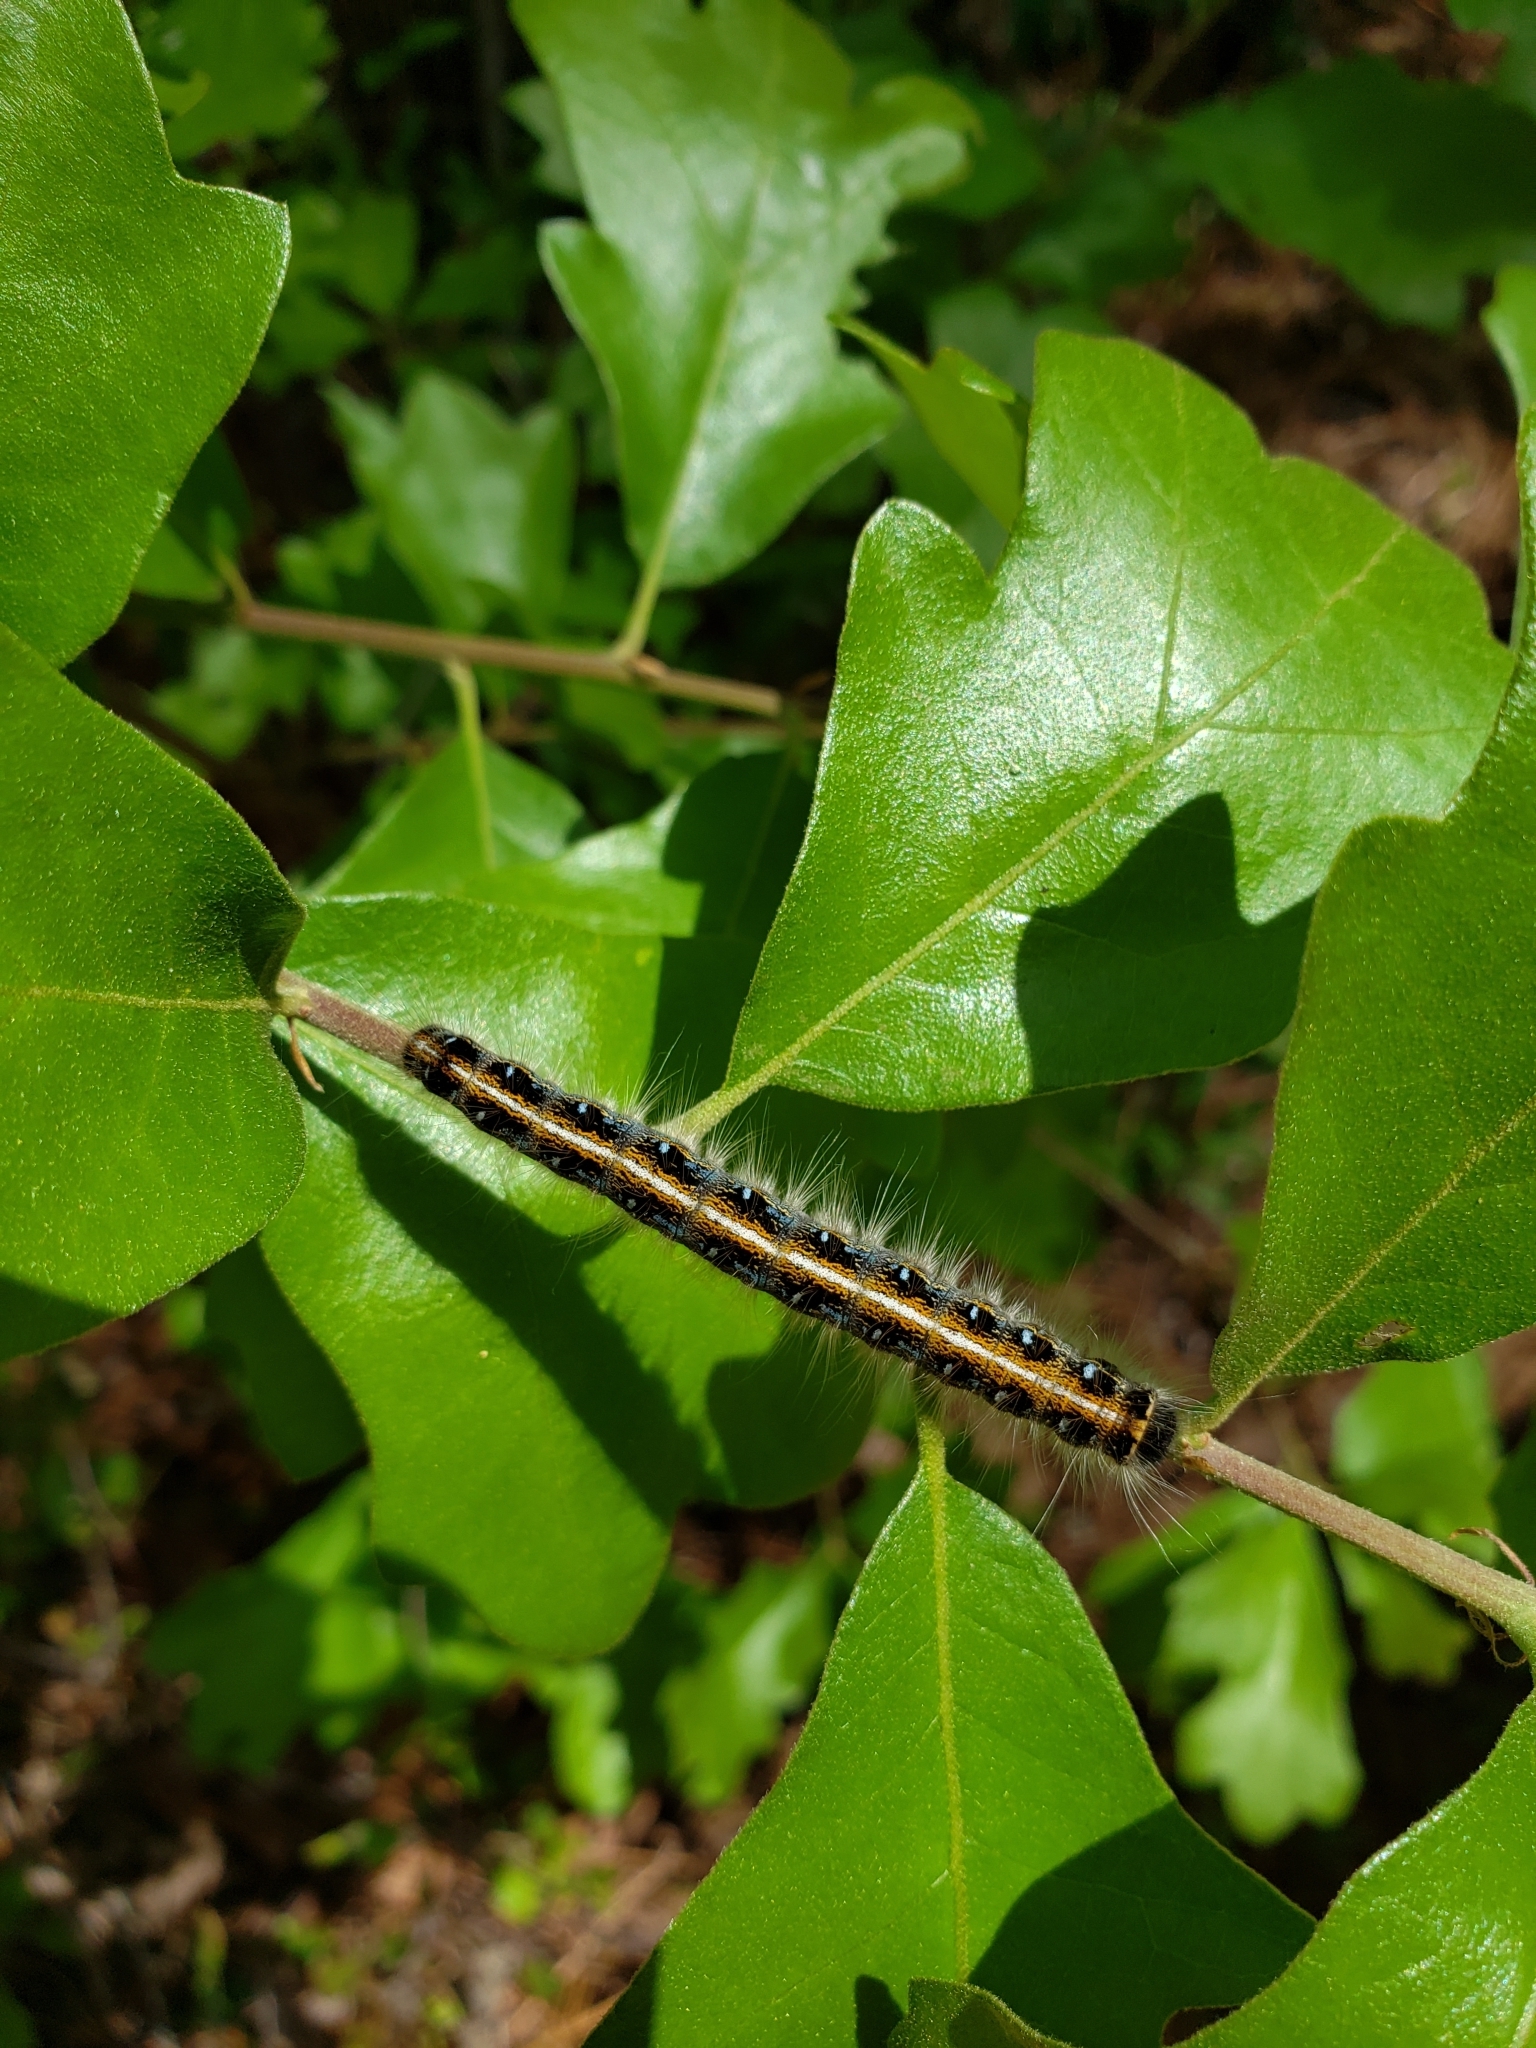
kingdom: Animalia
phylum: Arthropoda
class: Insecta
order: Lepidoptera
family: Lasiocampidae
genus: Malacosoma
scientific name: Malacosoma americana
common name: Eastern tent caterpillar moth
